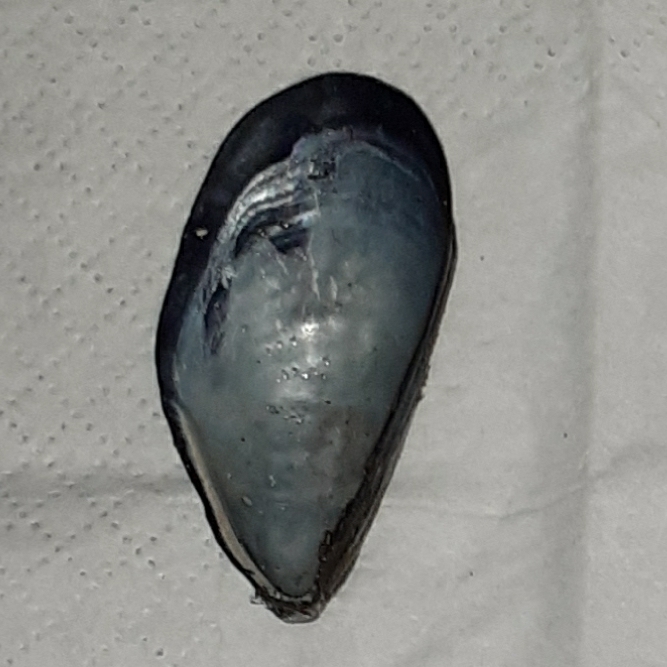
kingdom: Animalia
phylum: Mollusca
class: Bivalvia
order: Mytilida
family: Mytilidae
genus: Mytilus
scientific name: Mytilus galloprovincialis
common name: Mediterranean mussel
